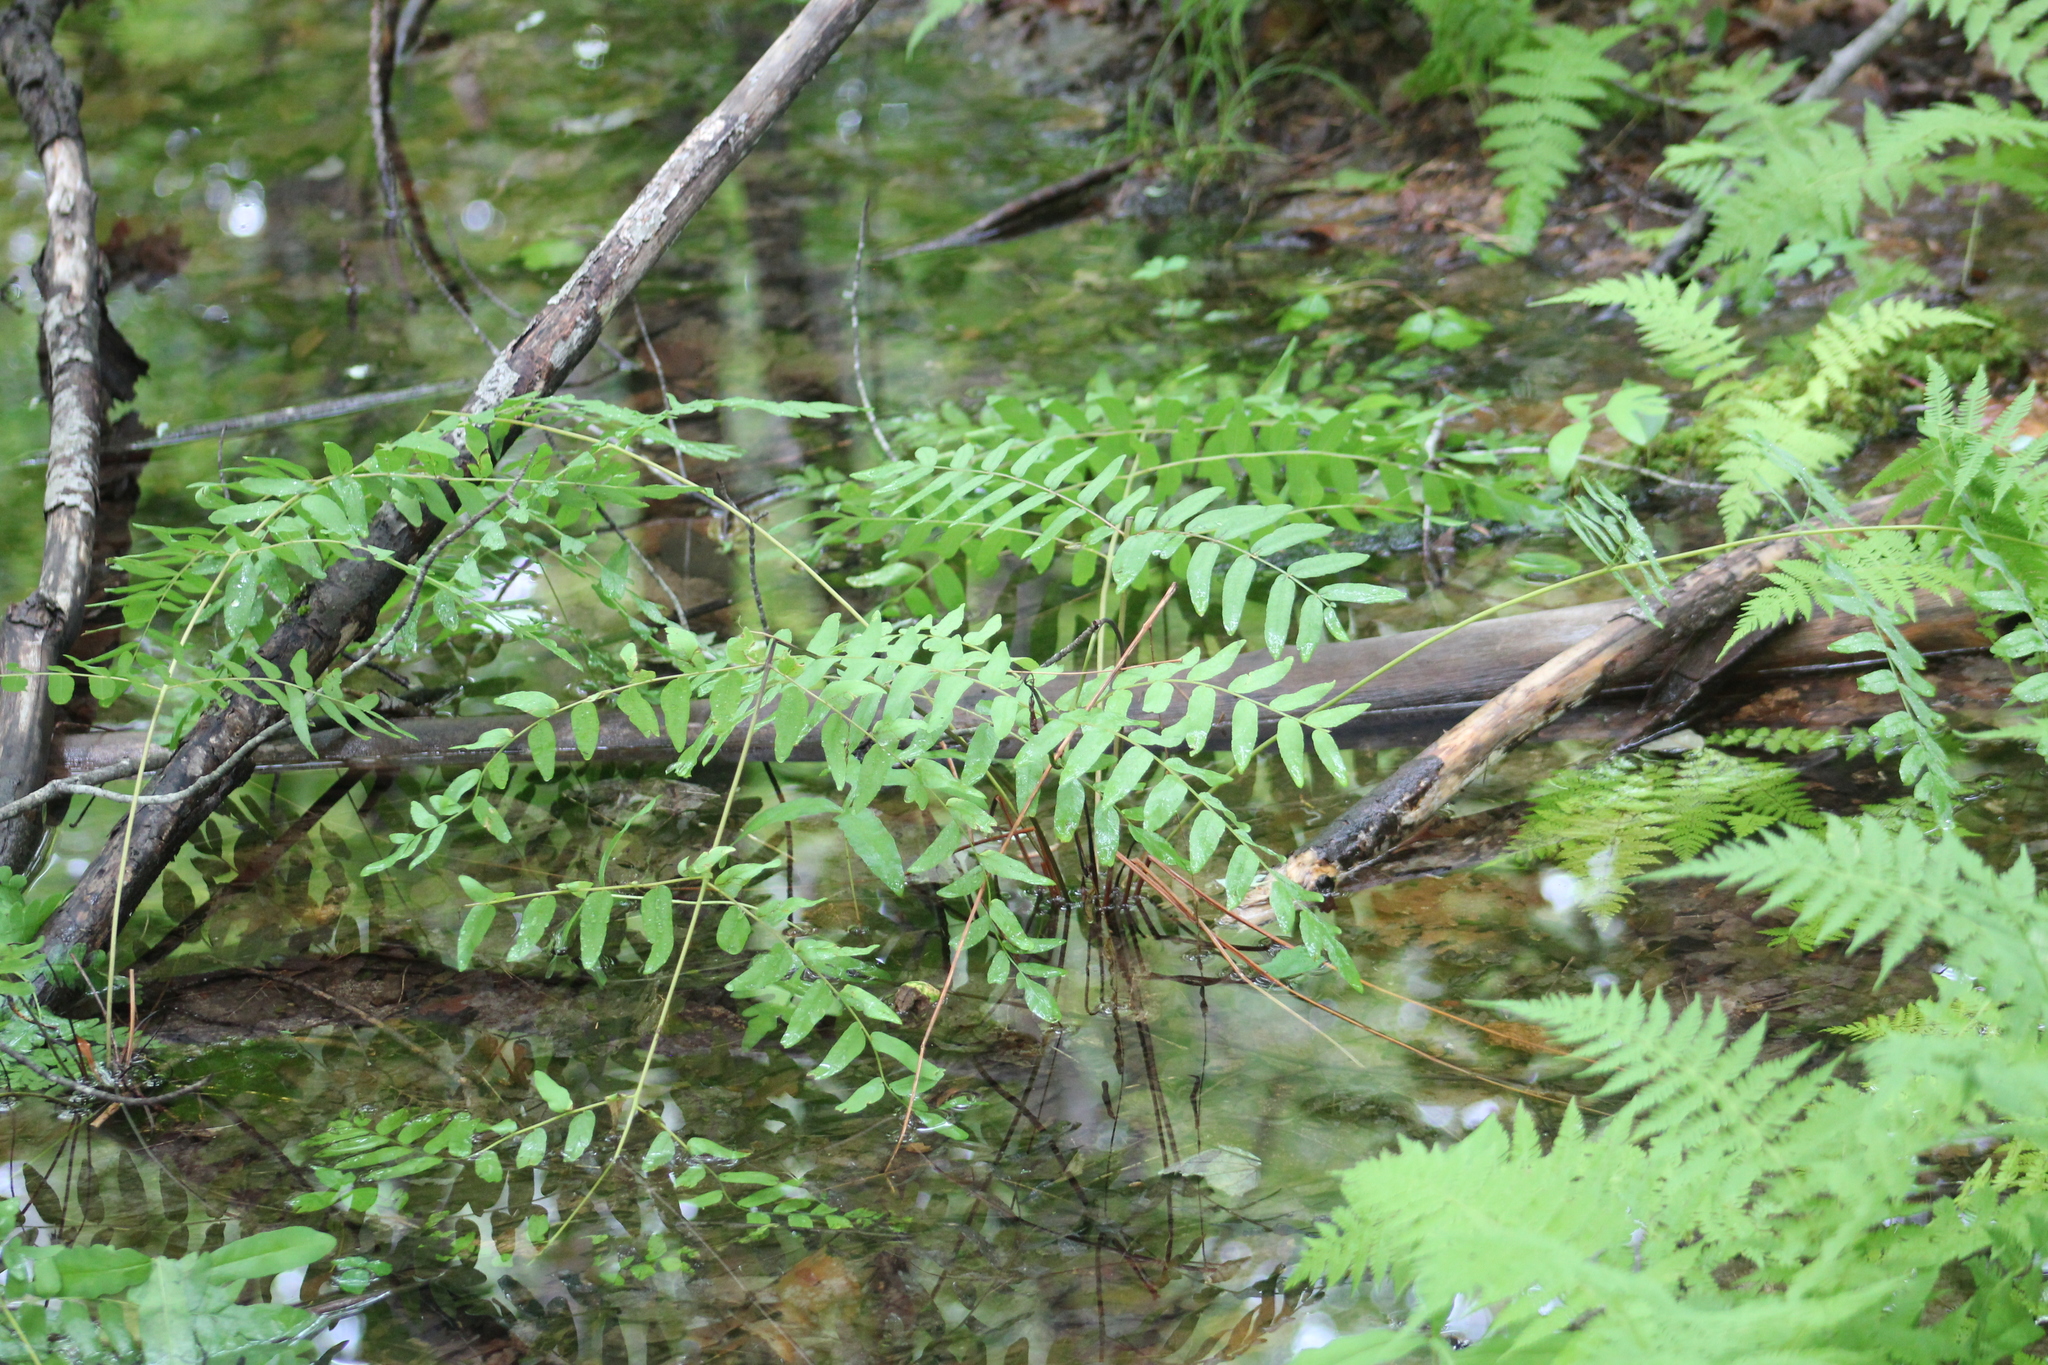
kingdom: Plantae
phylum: Tracheophyta
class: Polypodiopsida
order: Osmundales
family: Osmundaceae
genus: Osmunda
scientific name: Osmunda spectabilis
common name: American royal fern
